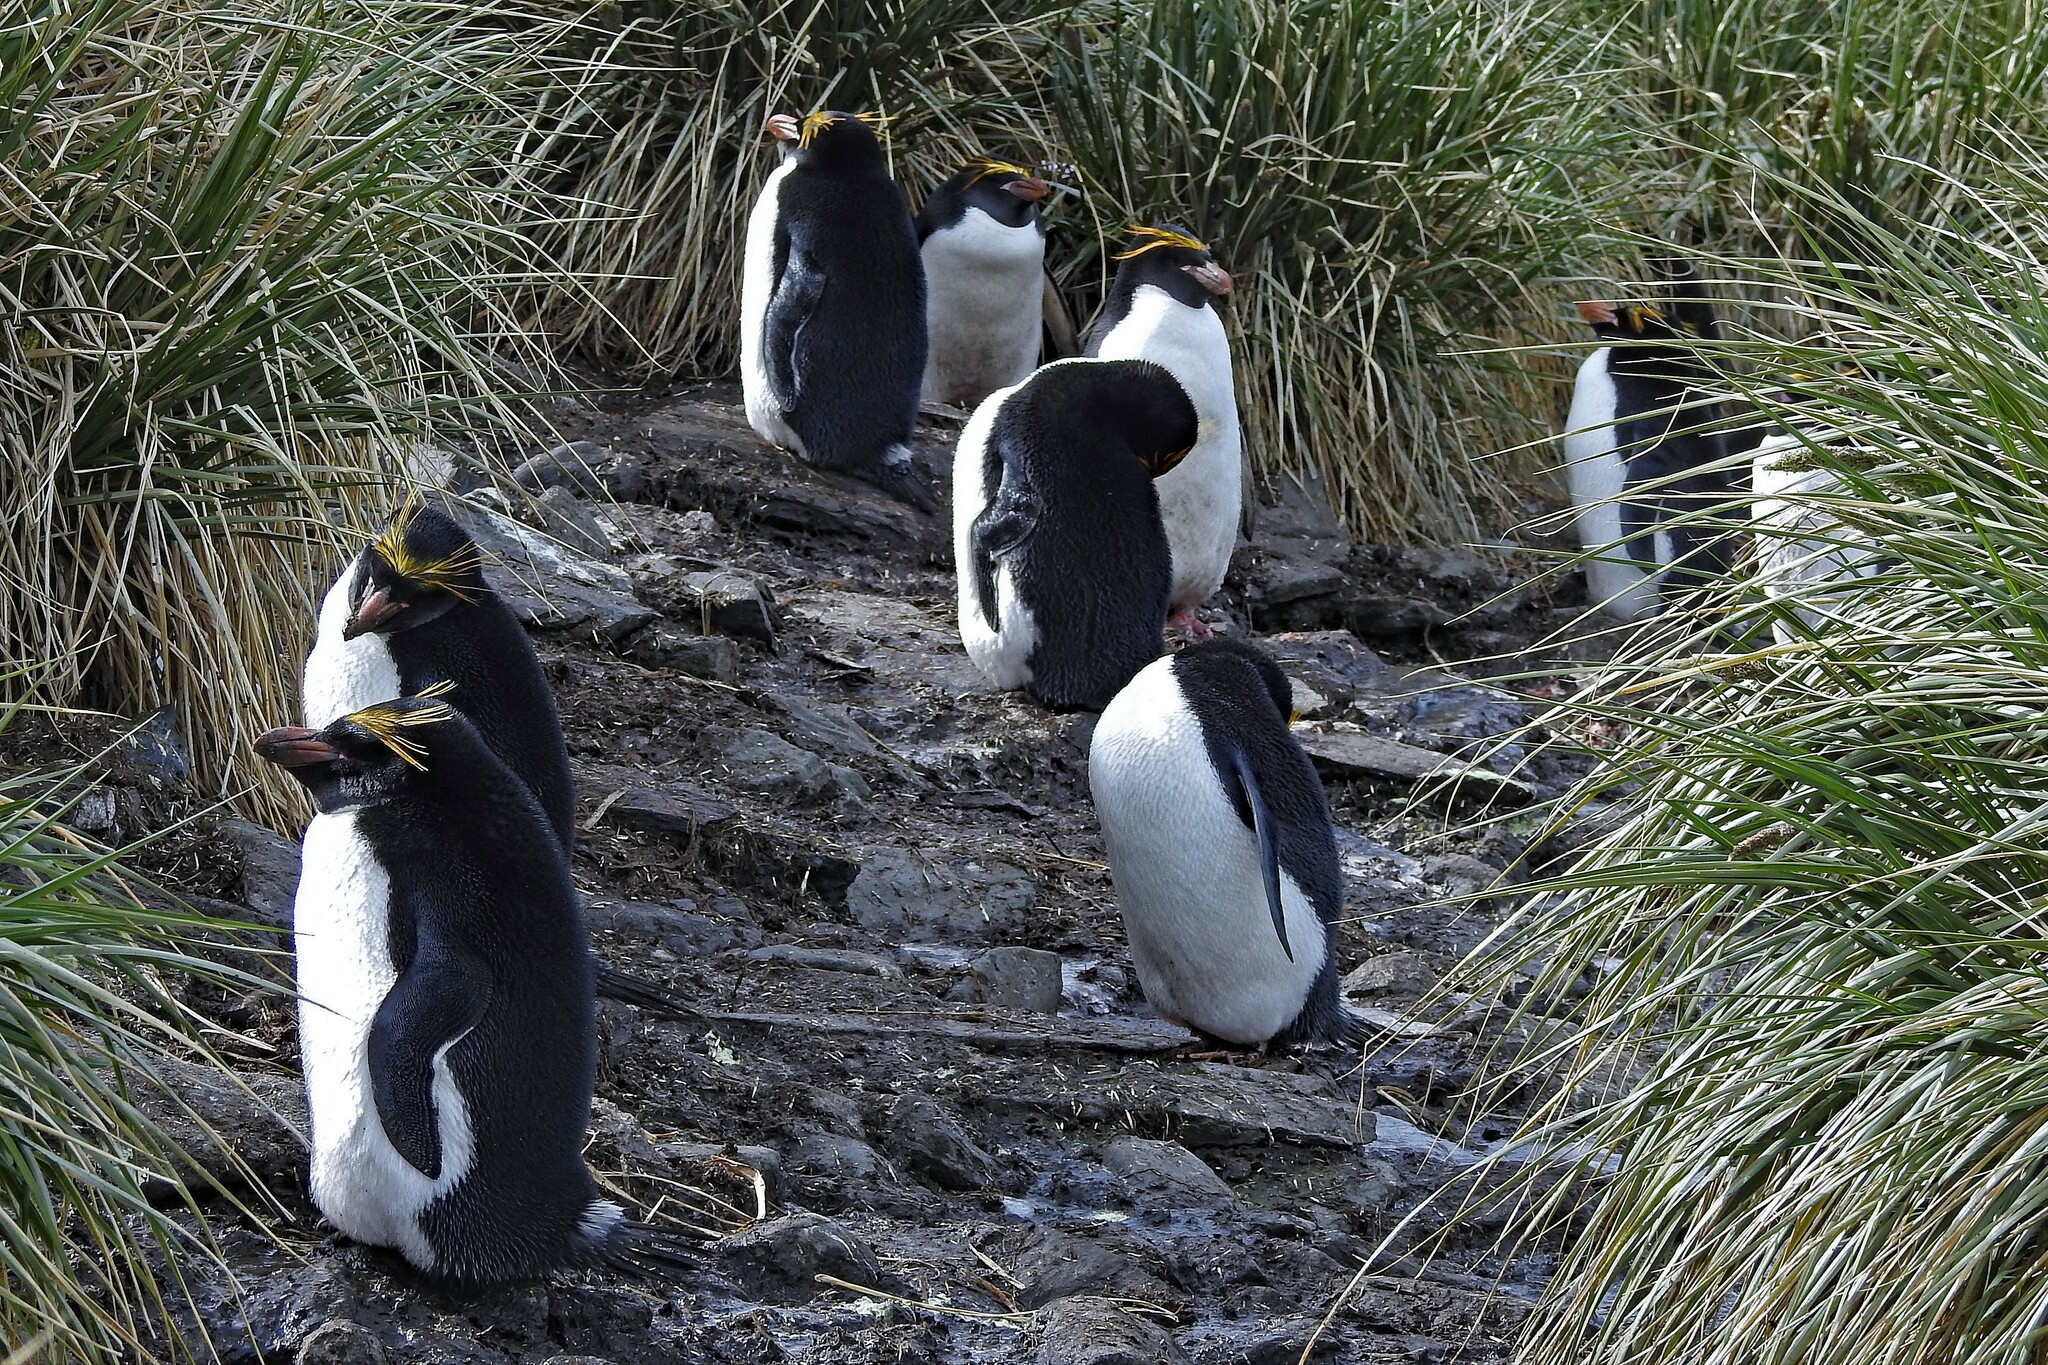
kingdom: Animalia
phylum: Chordata
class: Aves
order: Sphenisciformes
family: Spheniscidae
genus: Eudyptes
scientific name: Eudyptes chrysolophus
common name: Macaroni penguin
